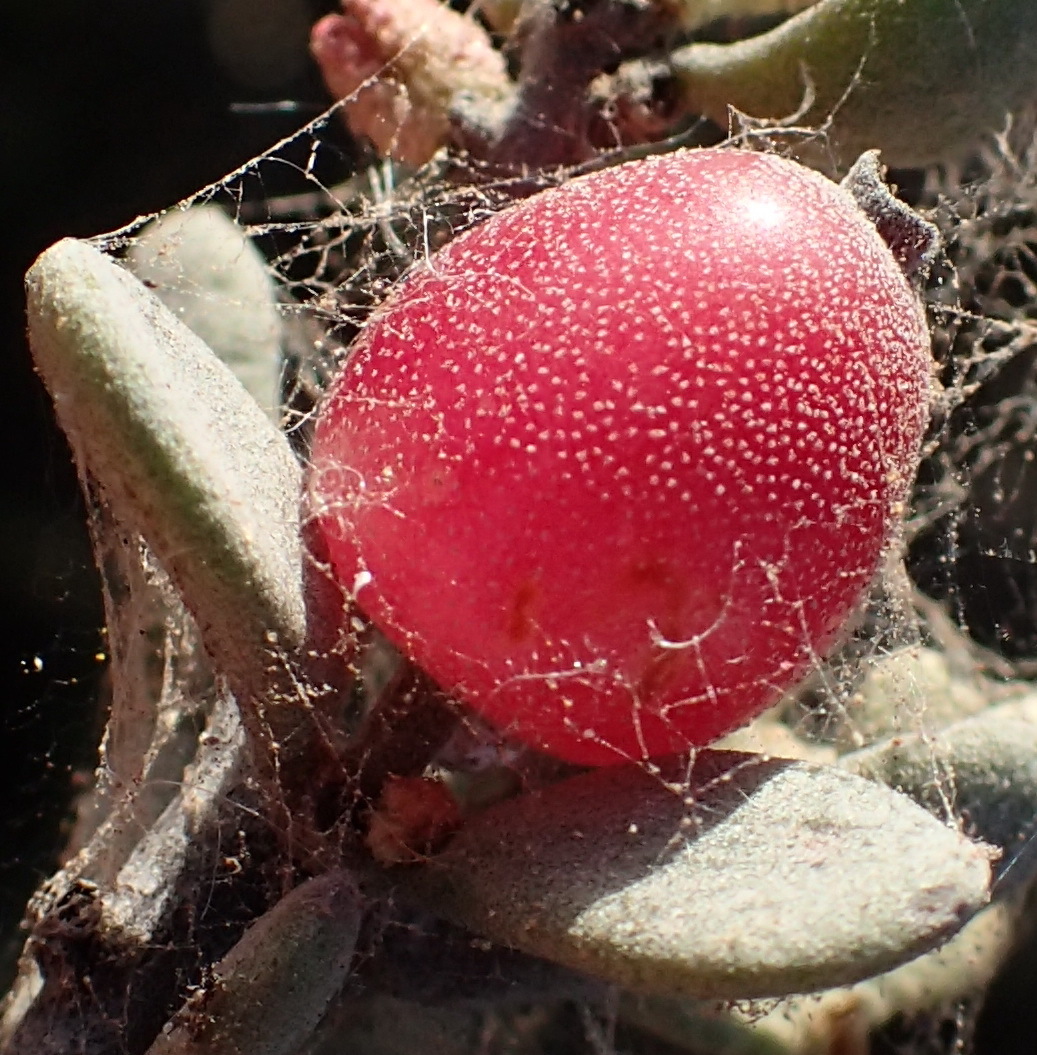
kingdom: Plantae
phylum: Tracheophyta
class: Magnoliopsida
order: Santalales
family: Loranthaceae
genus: Septulina
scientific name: Septulina glauca
